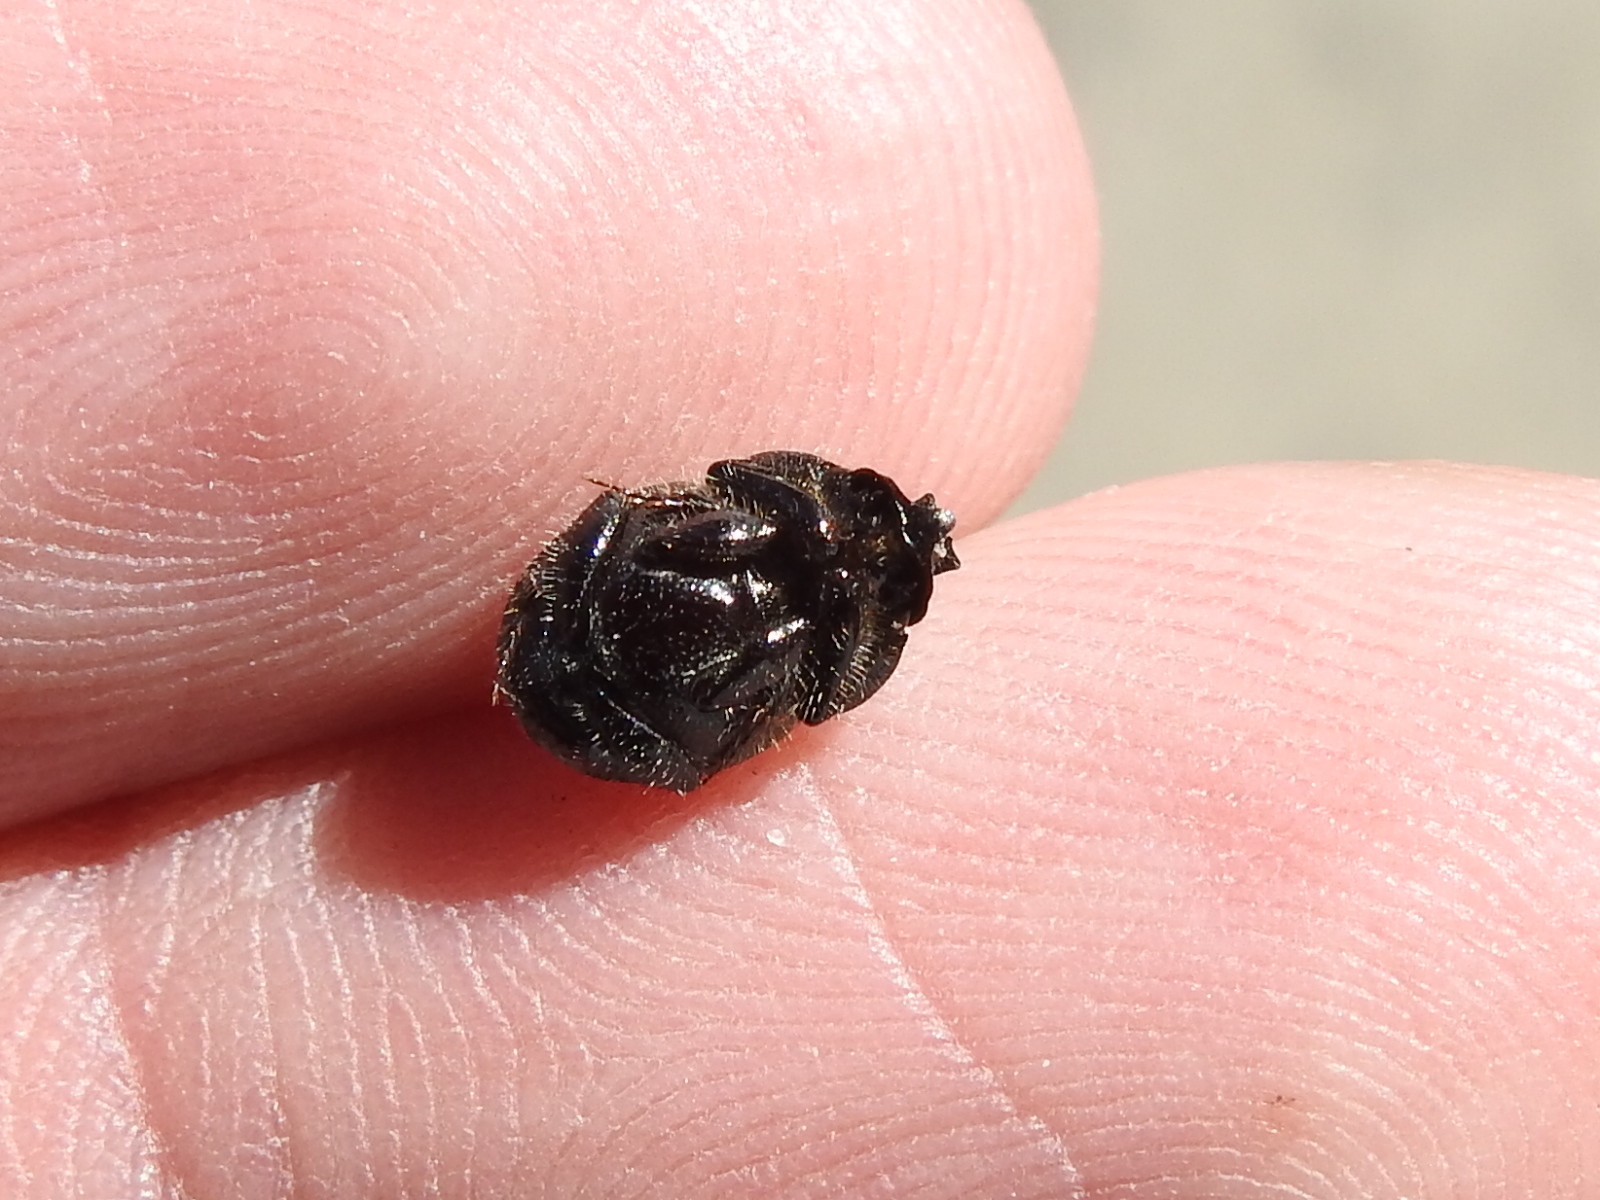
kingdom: Animalia
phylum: Arthropoda
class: Insecta
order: Coleoptera
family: Scarabaeidae
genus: Onthophagus
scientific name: Onthophagus hecate
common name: Scooped scarab
